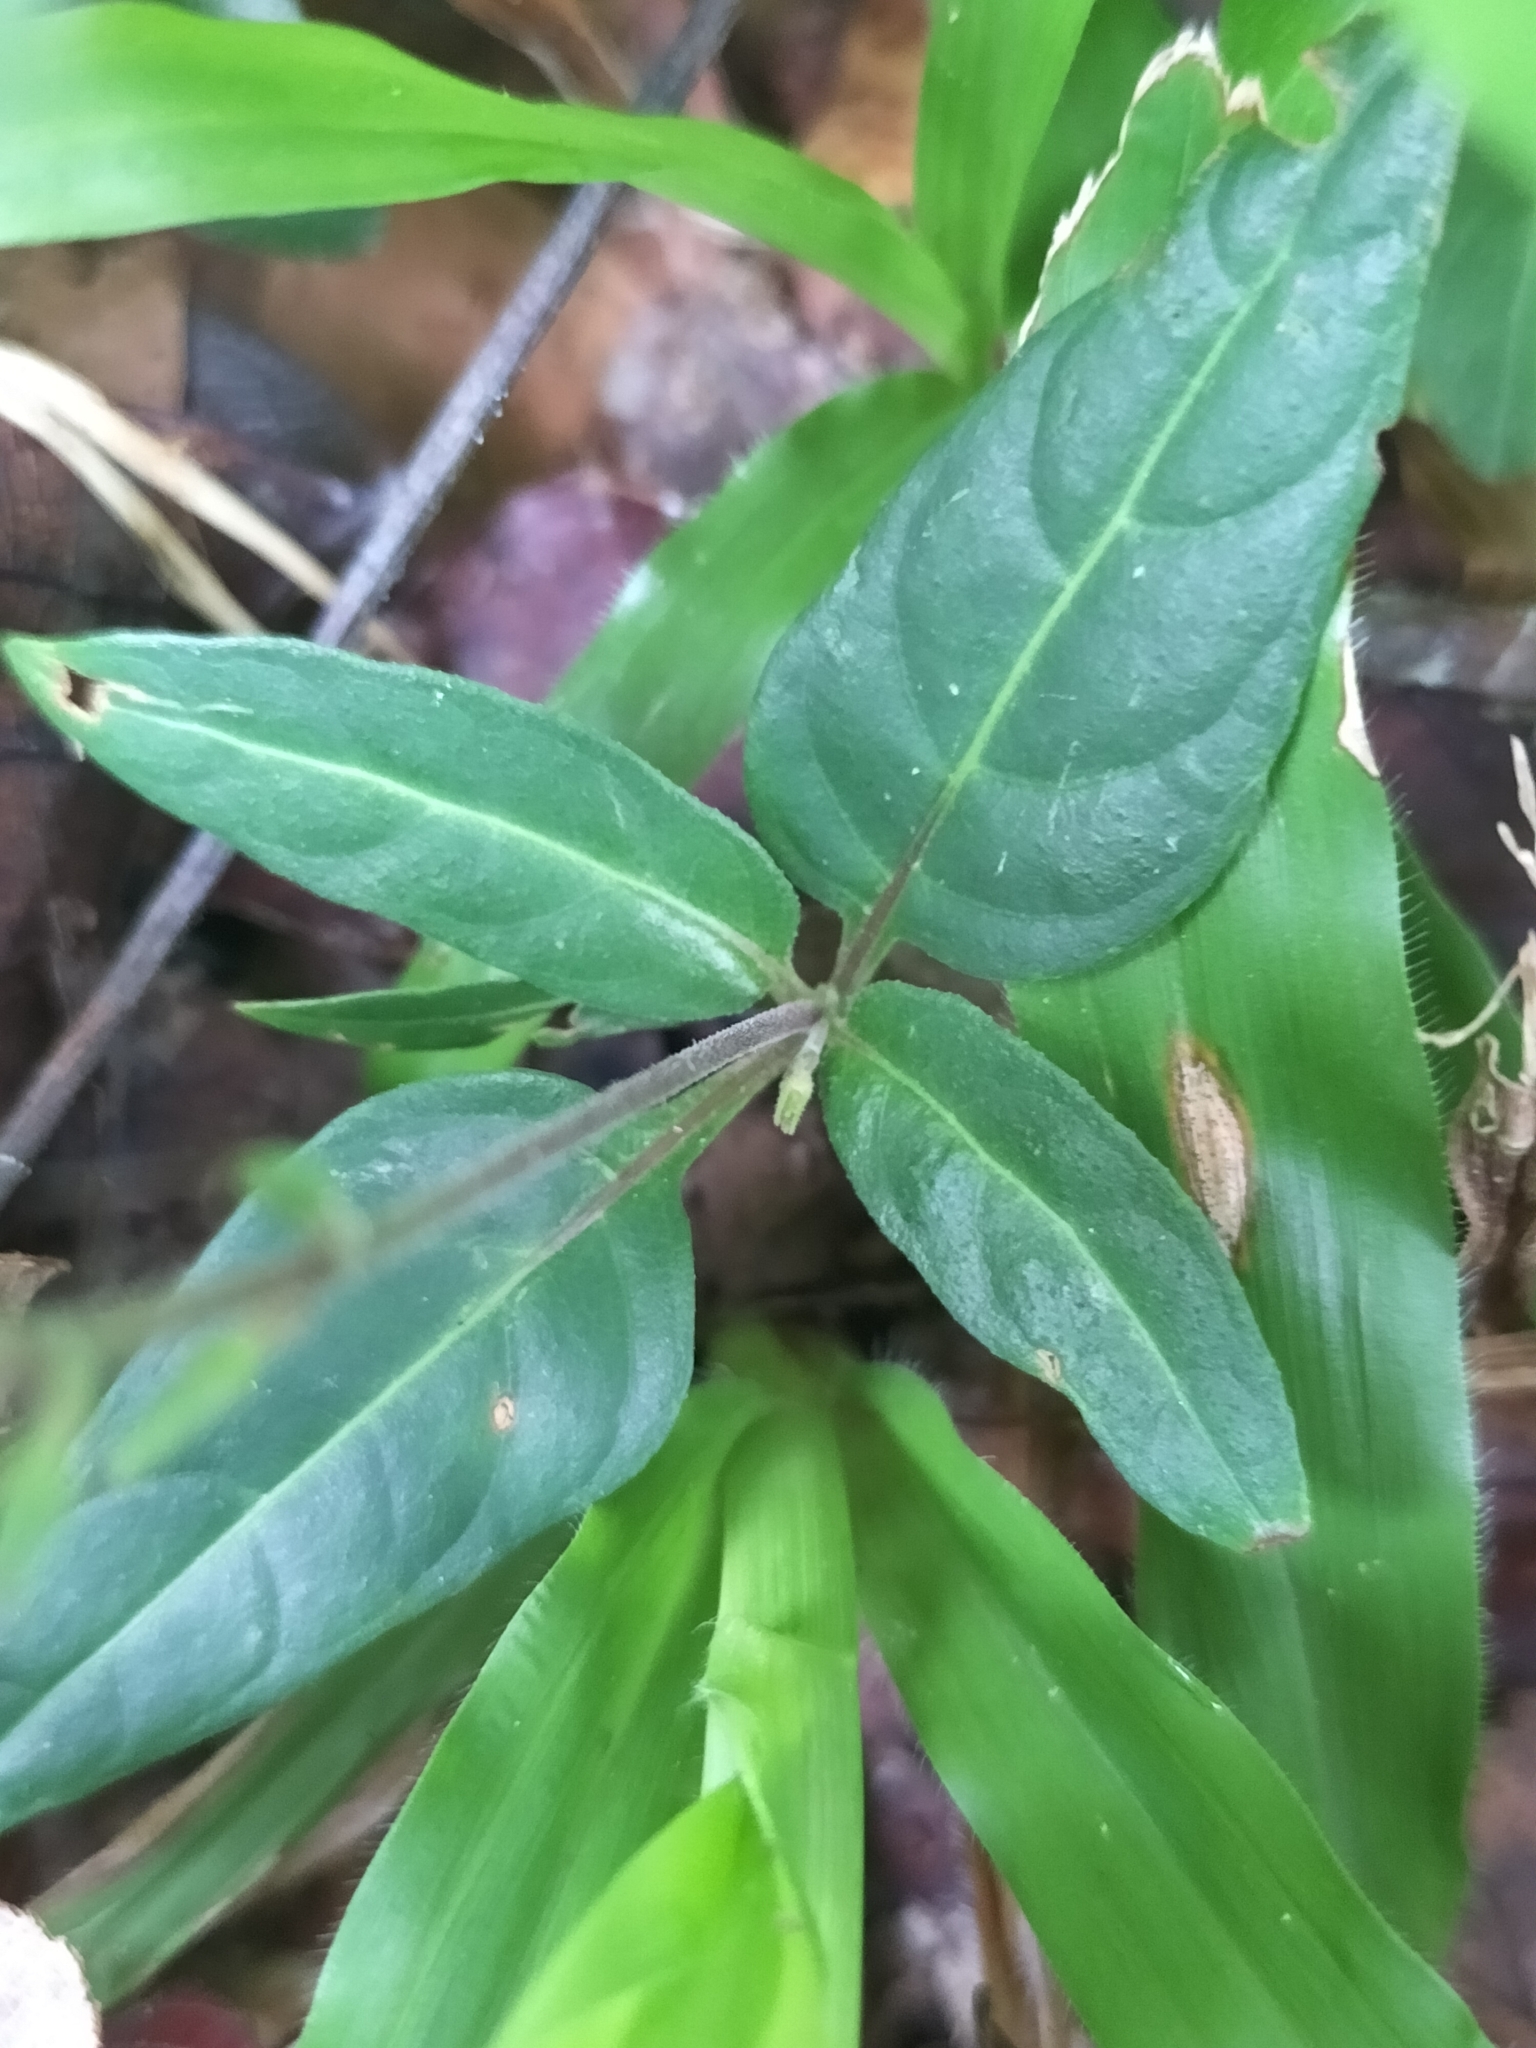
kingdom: Plantae
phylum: Tracheophyta
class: Magnoliopsida
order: Lamiales
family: Acanthaceae
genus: Pseuderanthemum
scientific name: Pseuderanthemum variabile
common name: Night and afternoon
